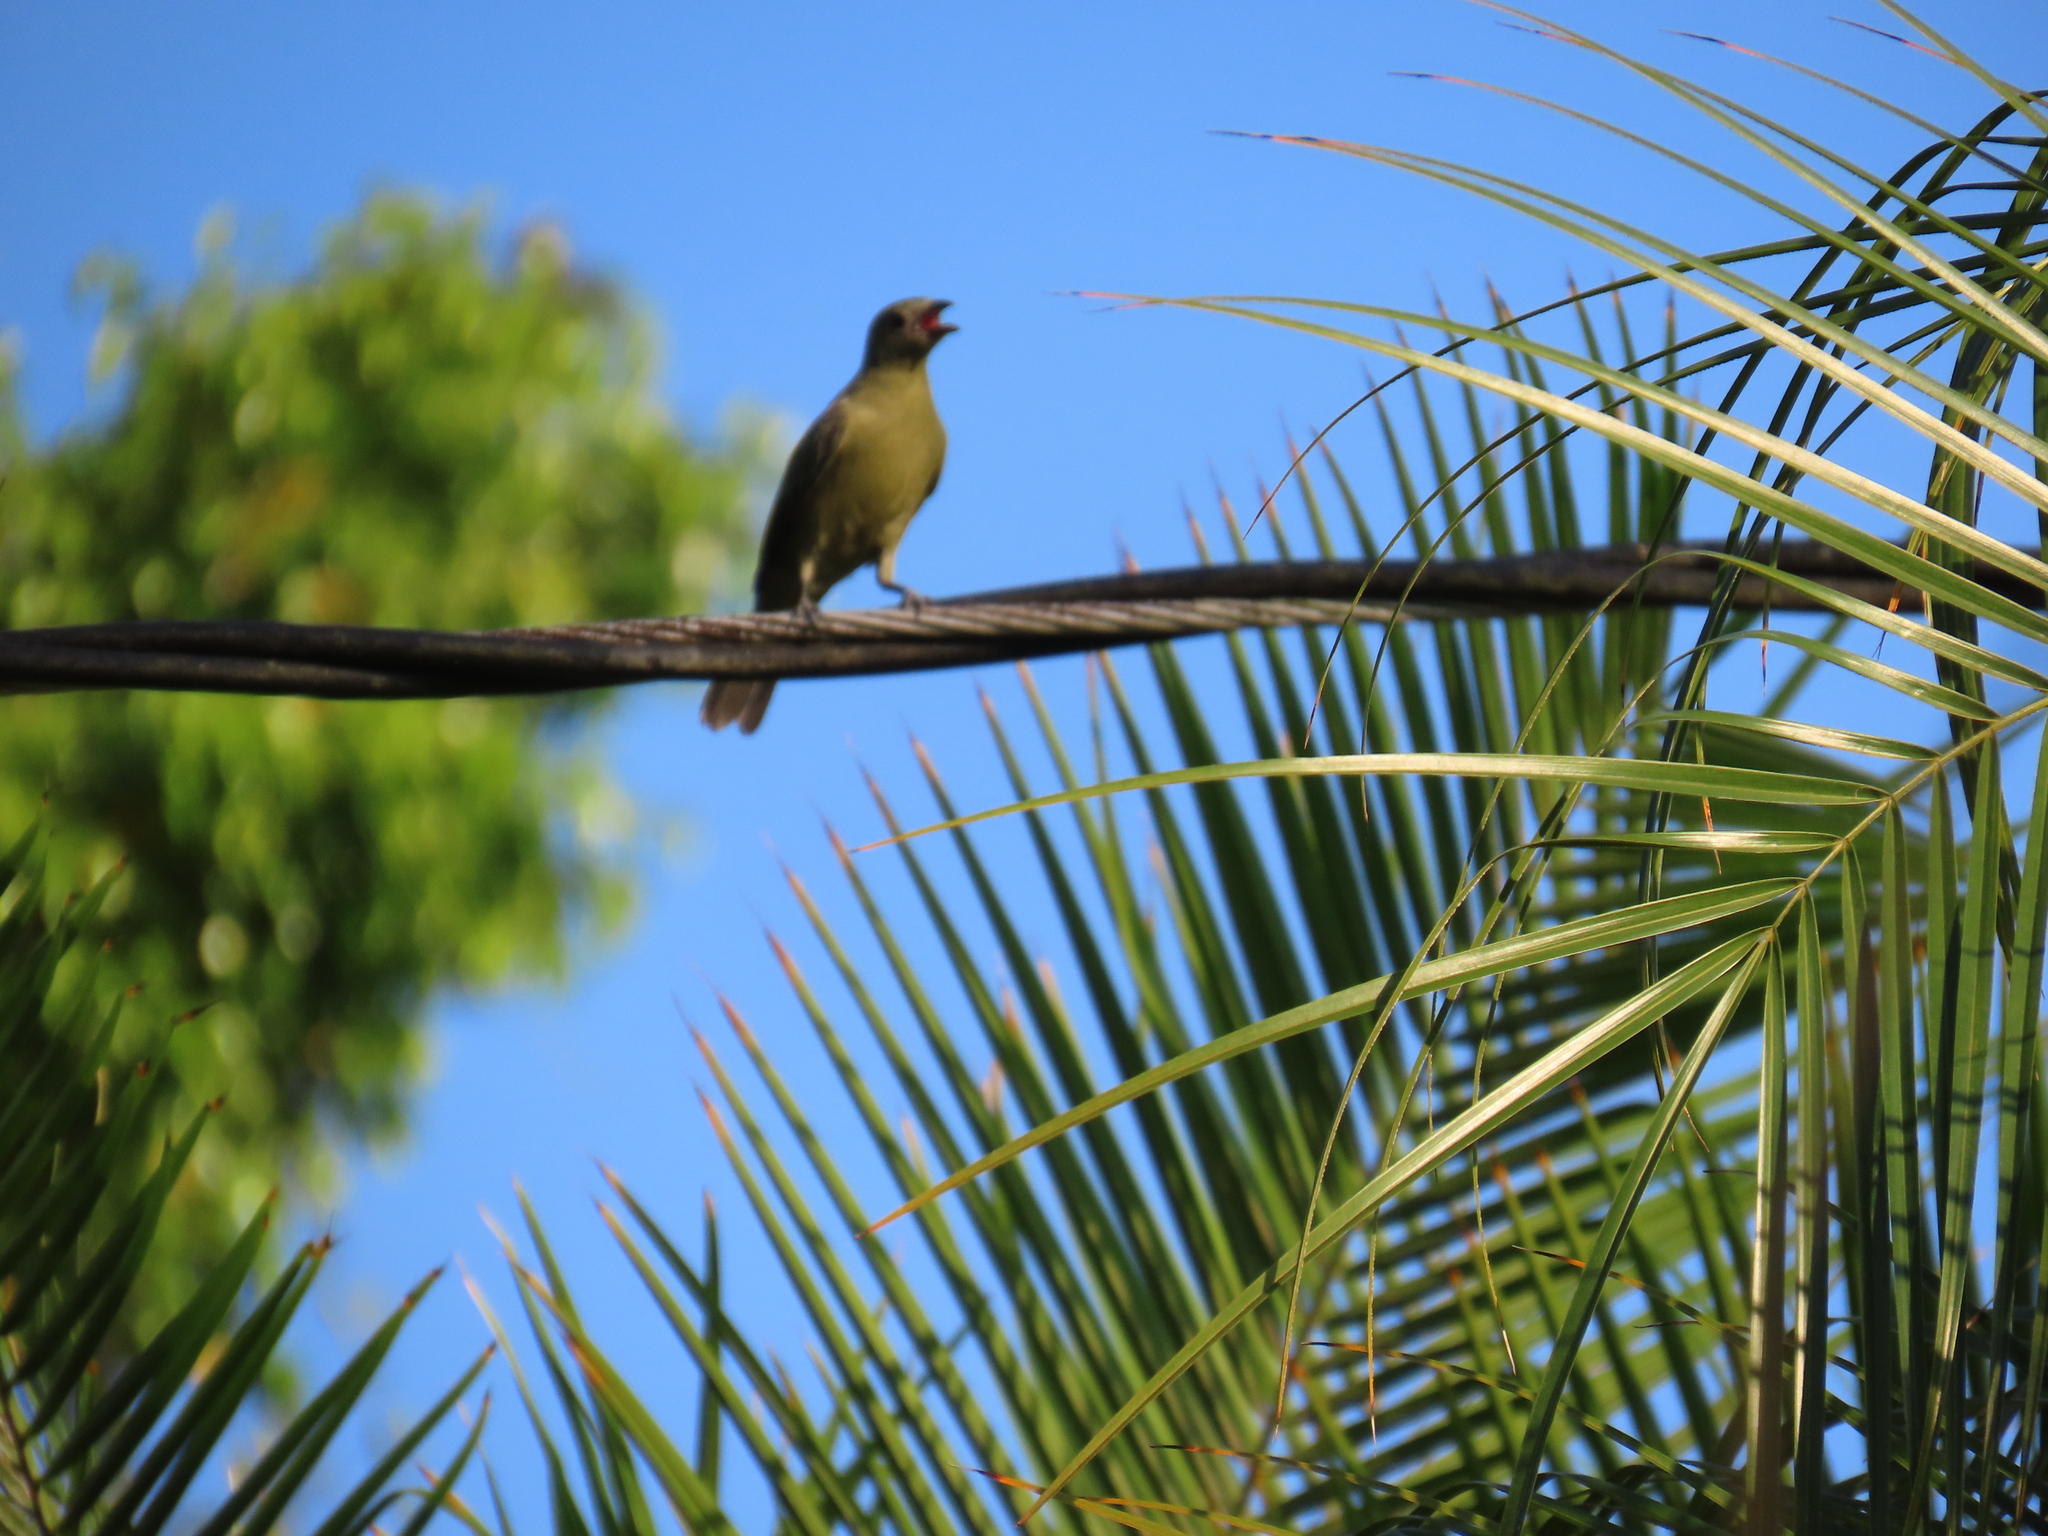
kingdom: Animalia
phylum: Chordata
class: Aves
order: Passeriformes
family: Thraupidae
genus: Thraupis
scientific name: Thraupis palmarum
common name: Palm tanager
